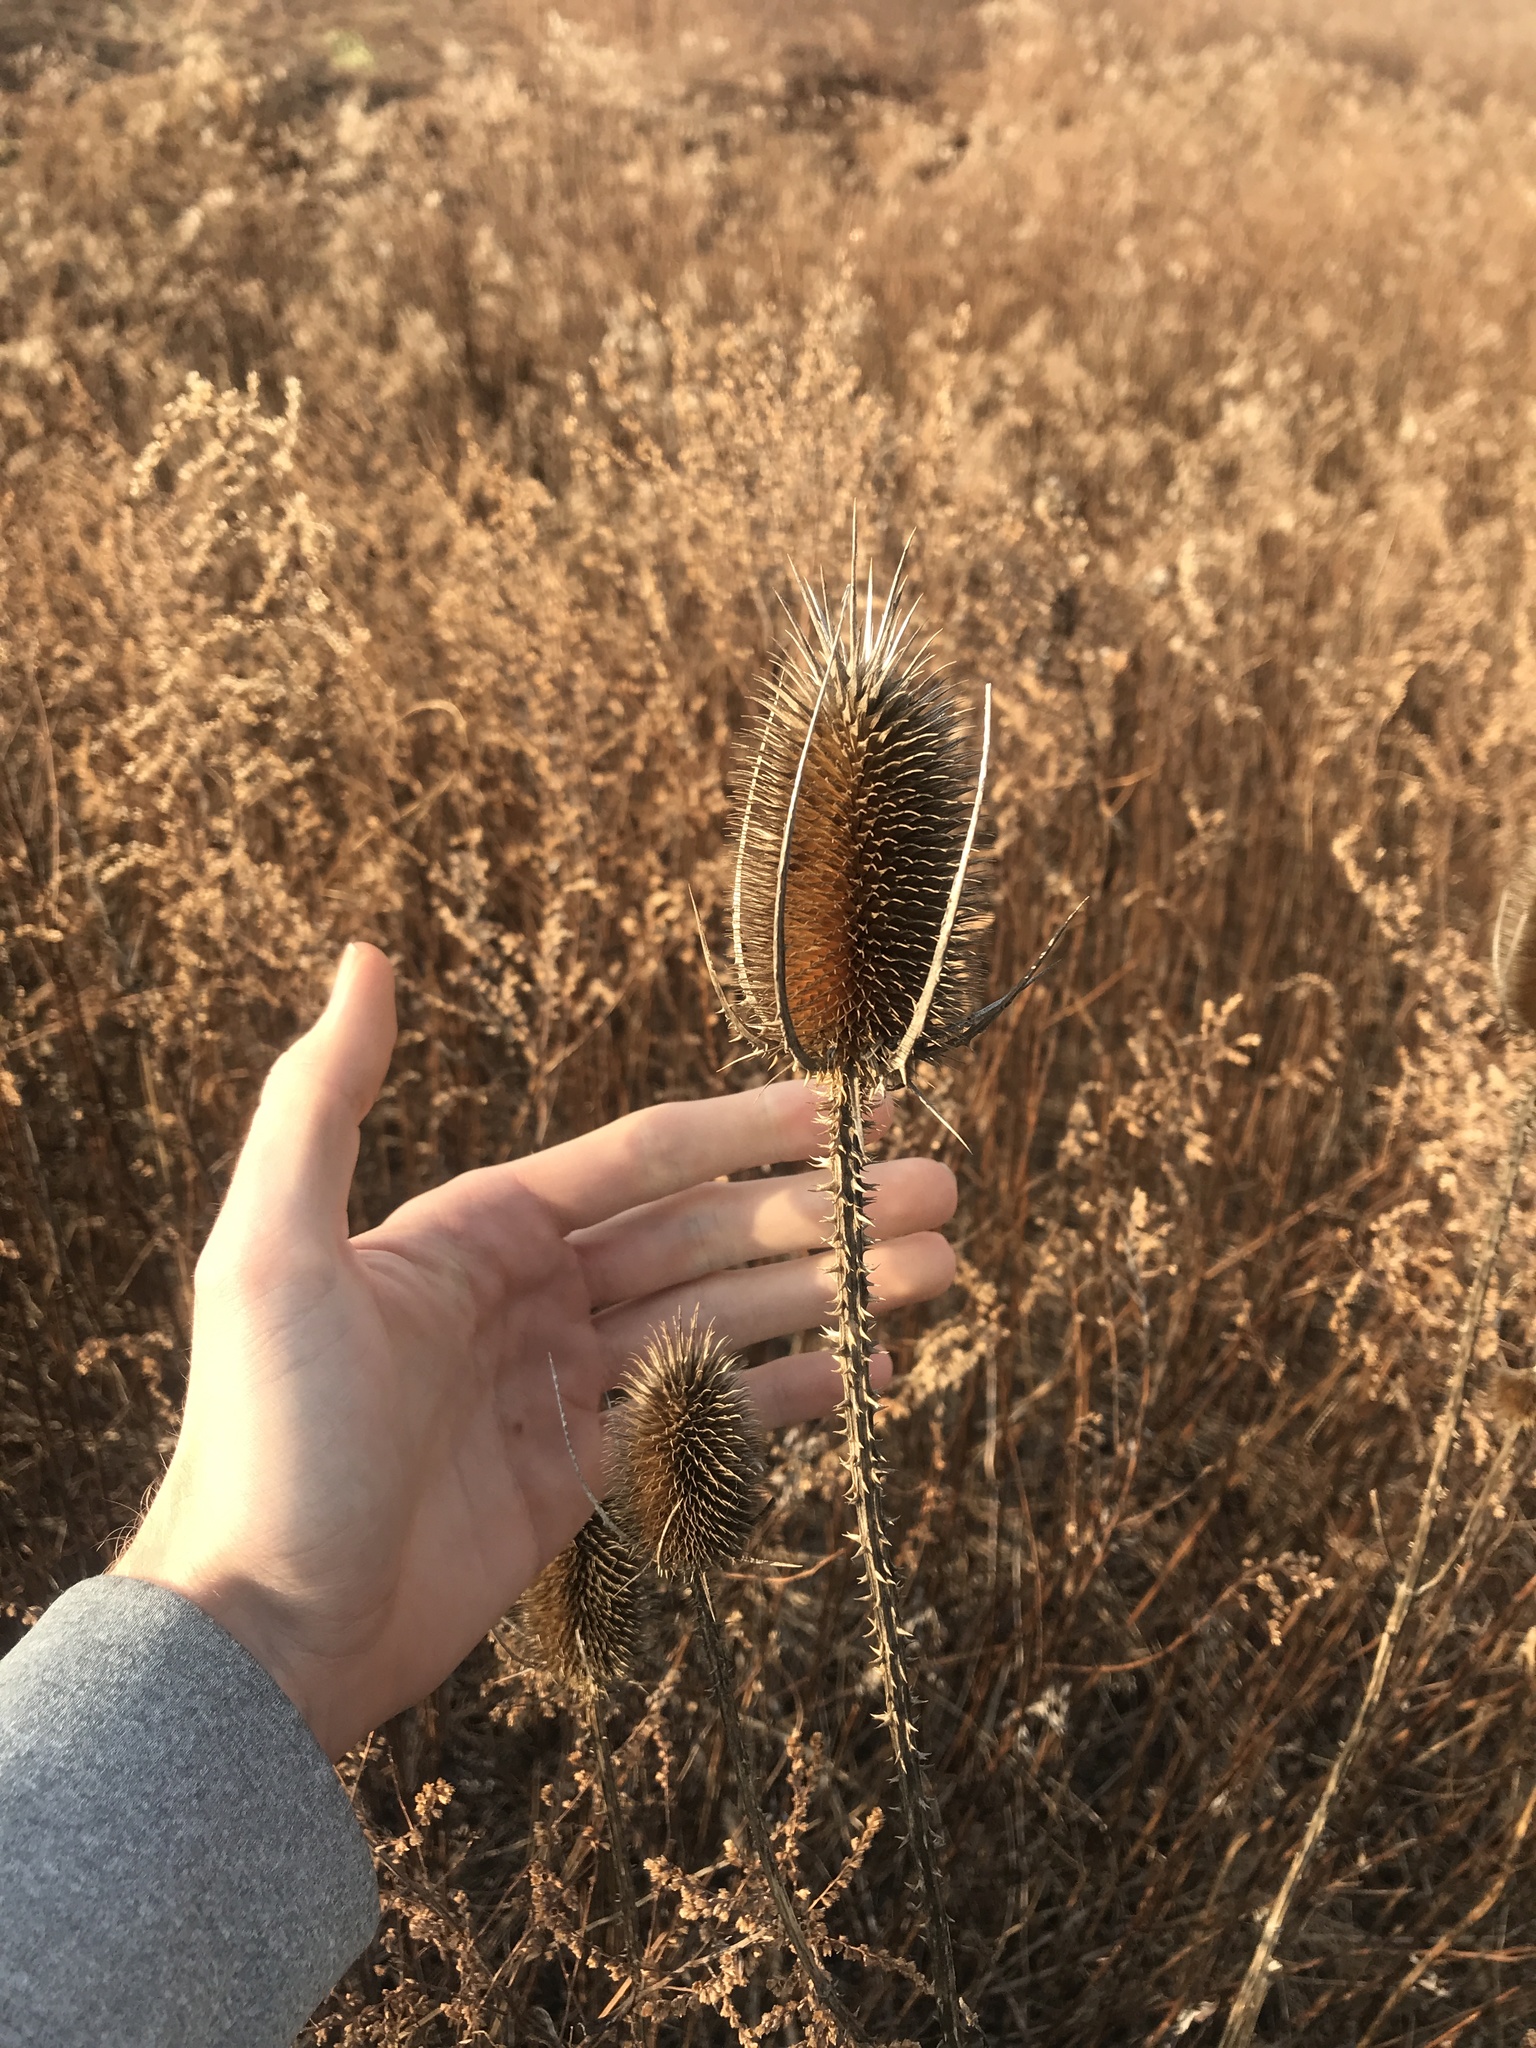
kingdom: Plantae
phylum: Tracheophyta
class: Magnoliopsida
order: Dipsacales
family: Caprifoliaceae
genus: Dipsacus
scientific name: Dipsacus fullonum
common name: Teasel
